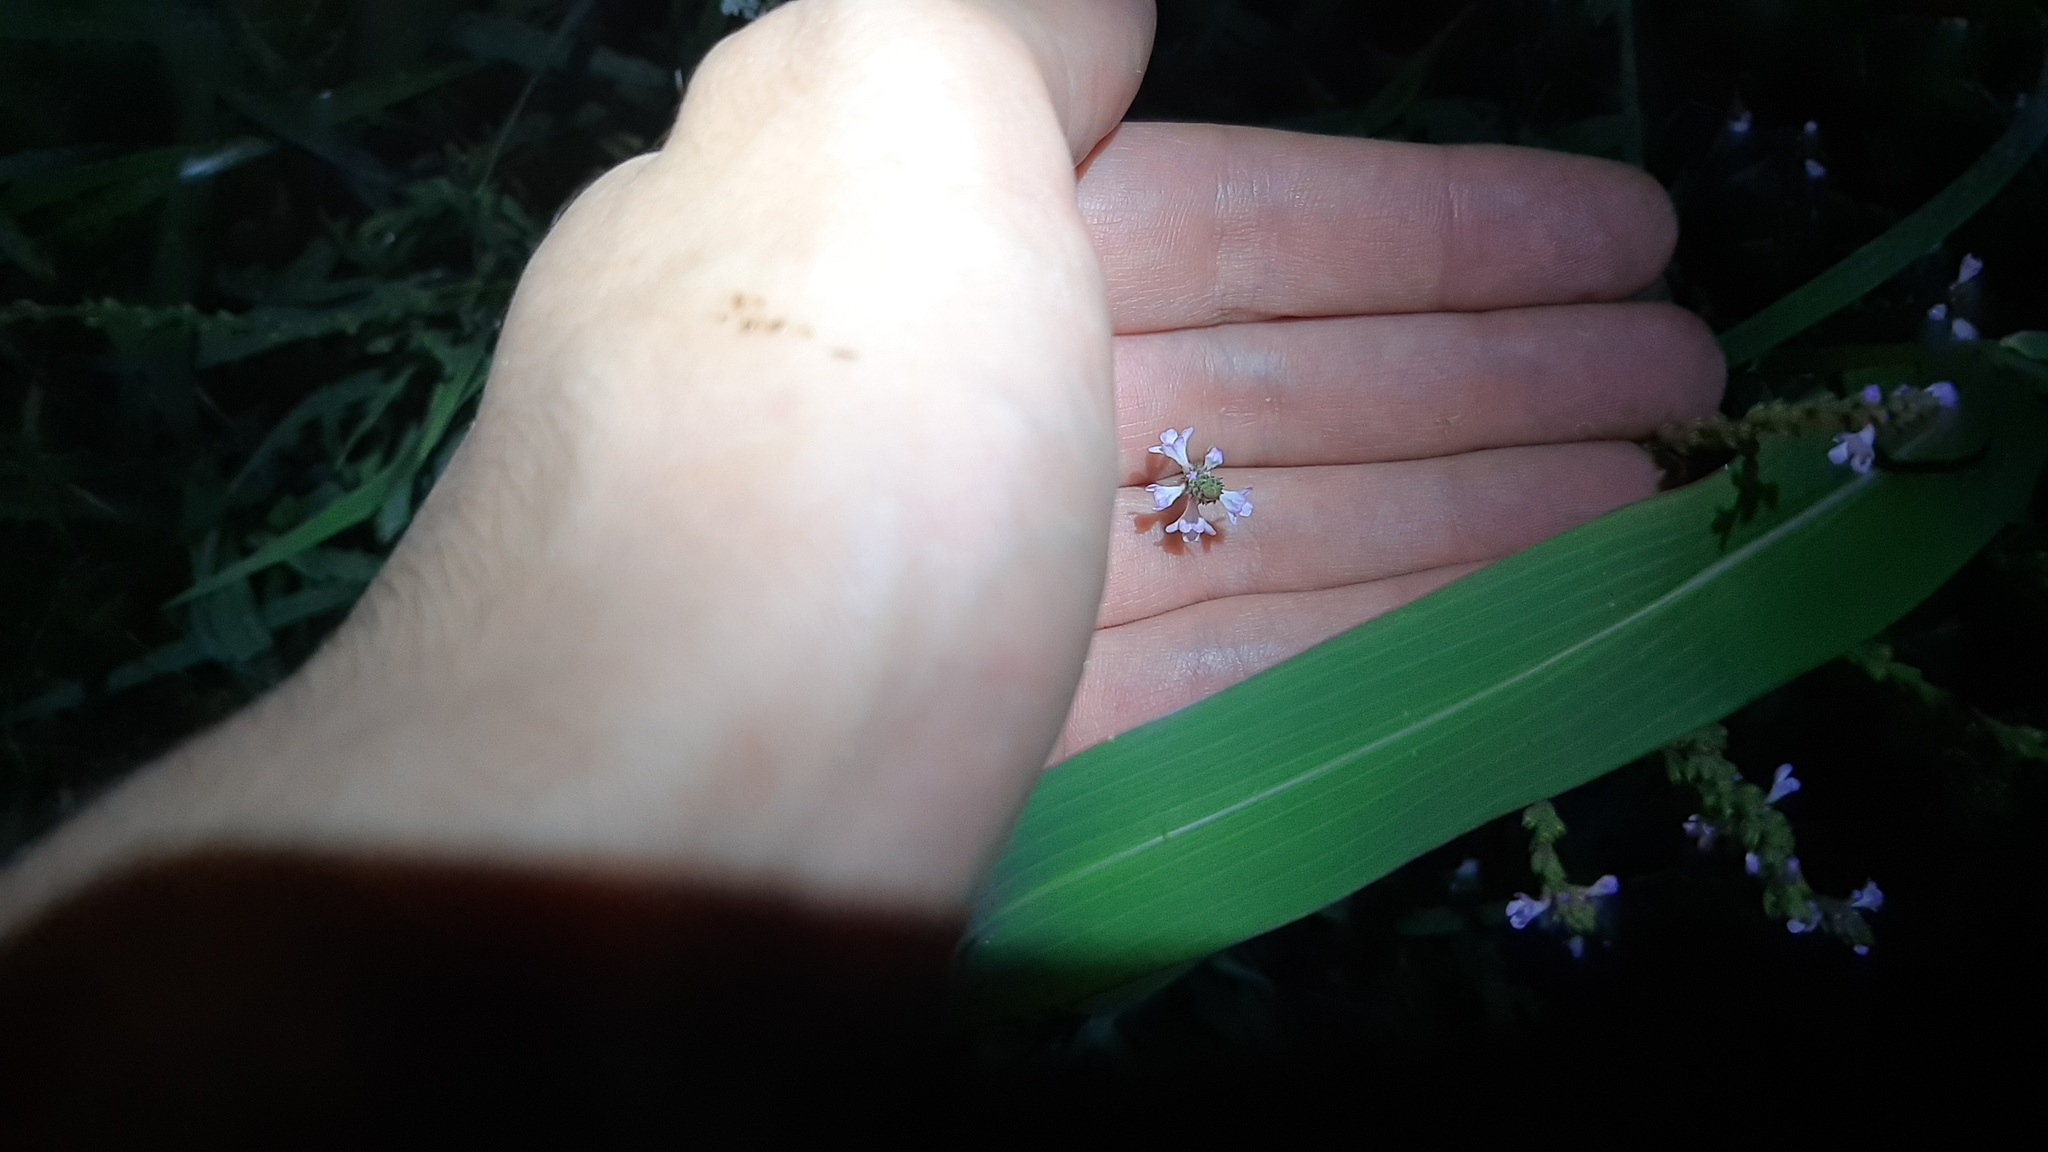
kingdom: Plantae
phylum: Tracheophyta
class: Magnoliopsida
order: Lamiales
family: Verbenaceae
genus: Verbena
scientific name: Verbena officinalis
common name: Vervain
